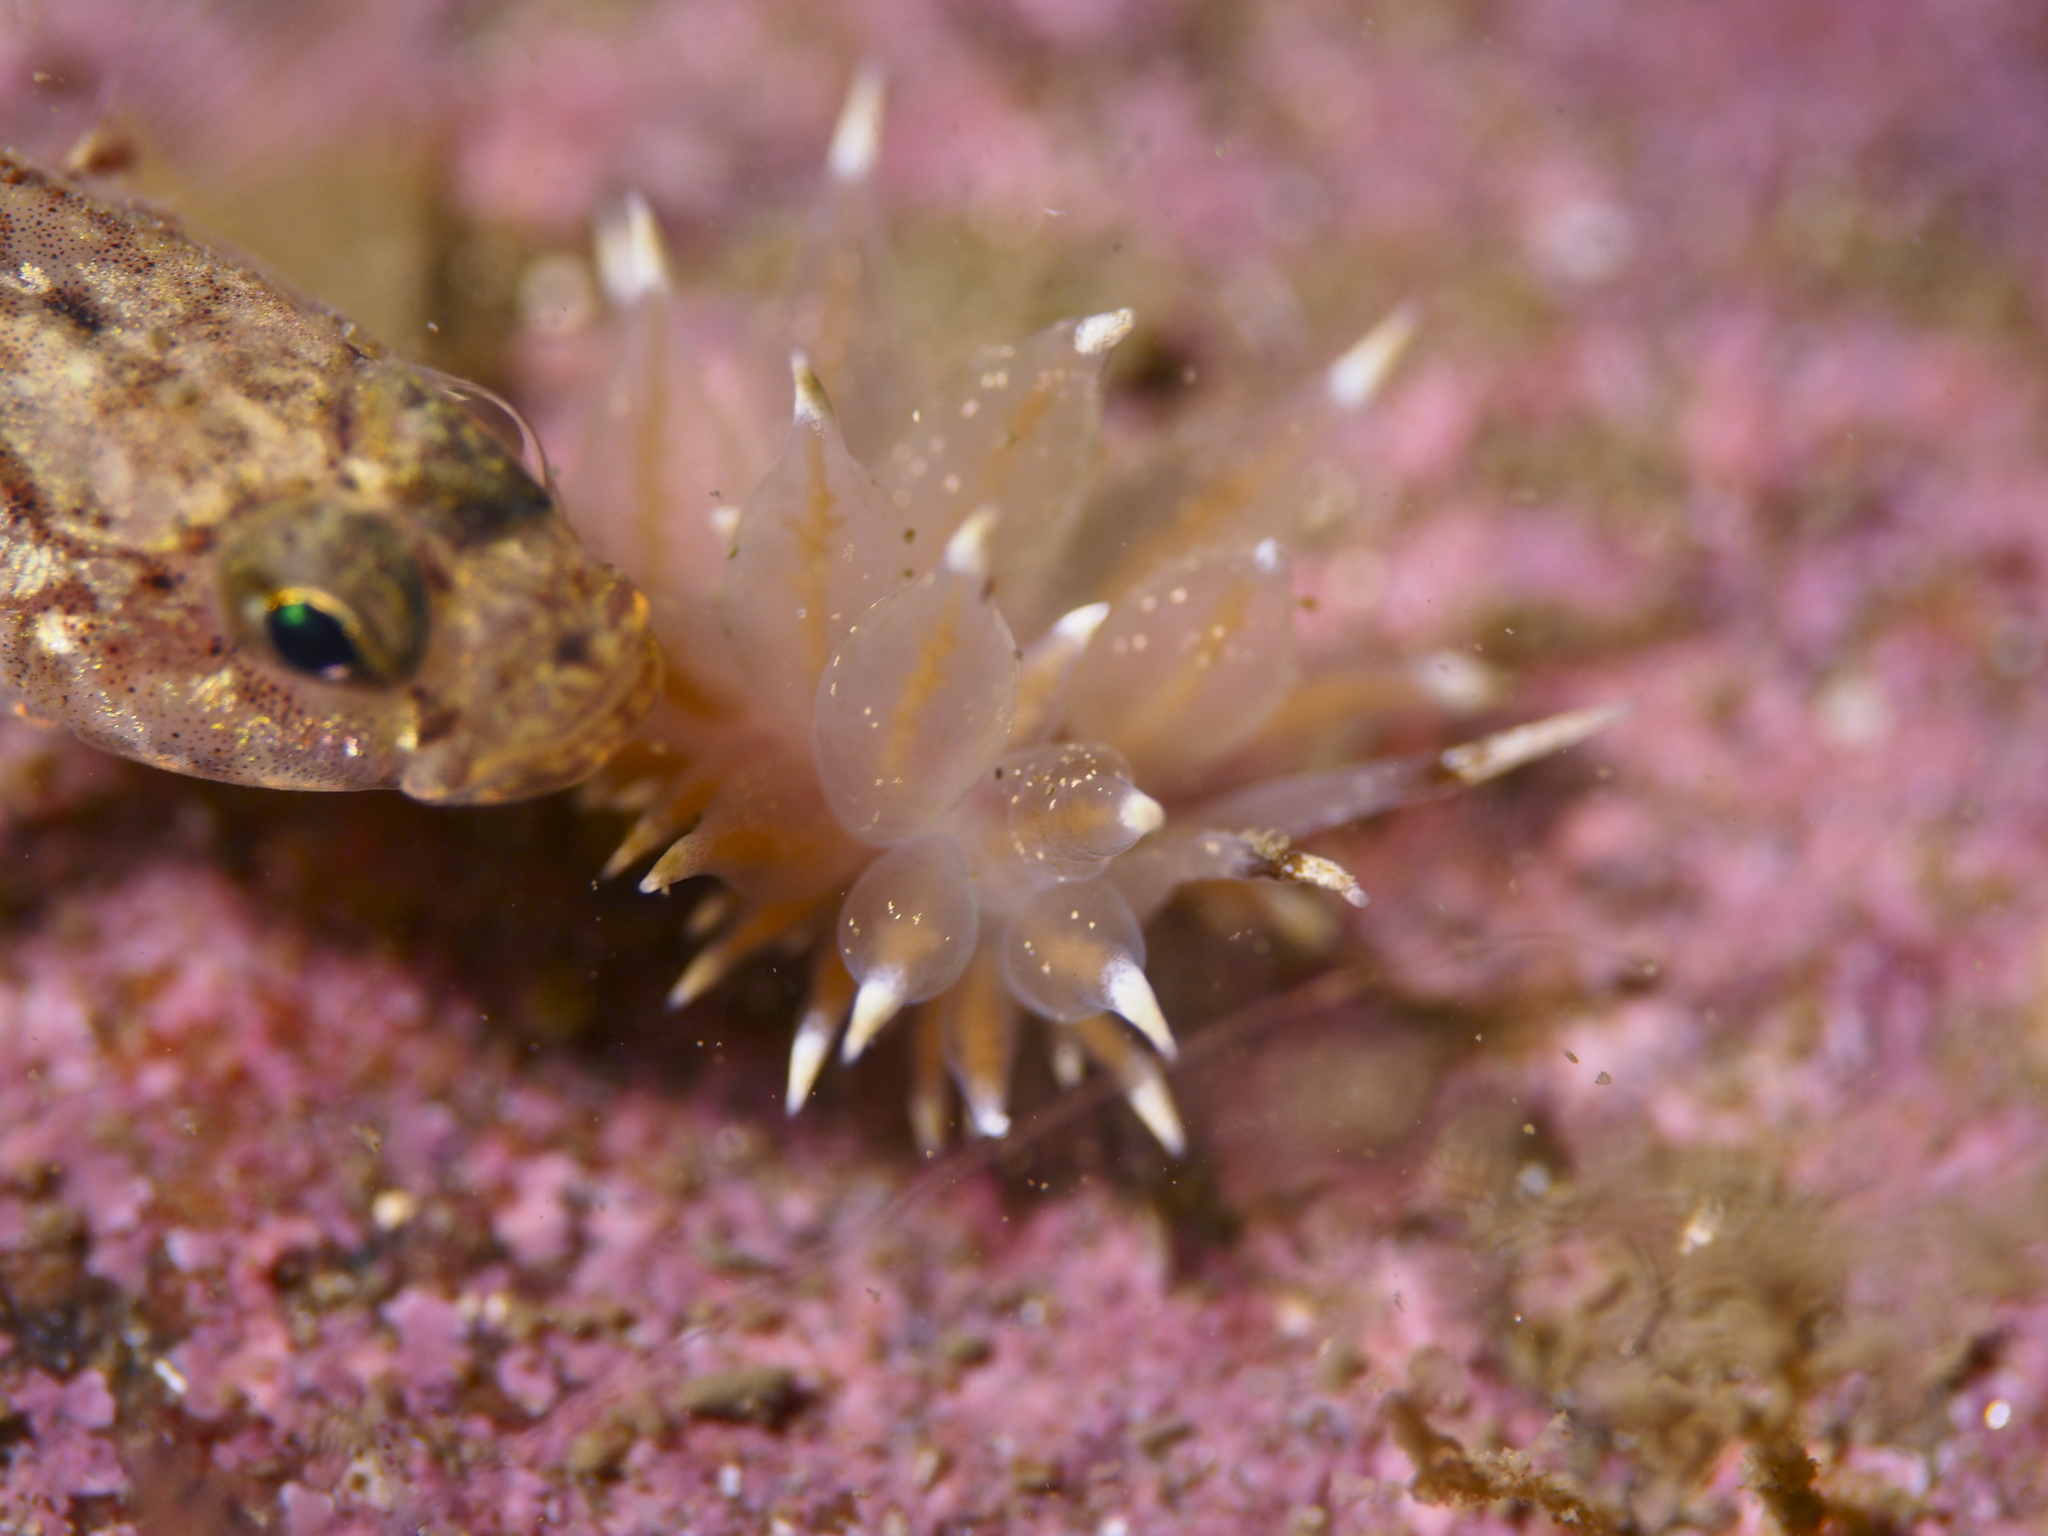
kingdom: Animalia
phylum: Mollusca
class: Gastropoda
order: Nudibranchia
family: Eubranchidae
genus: Amphorina
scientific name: Amphorina linensis
